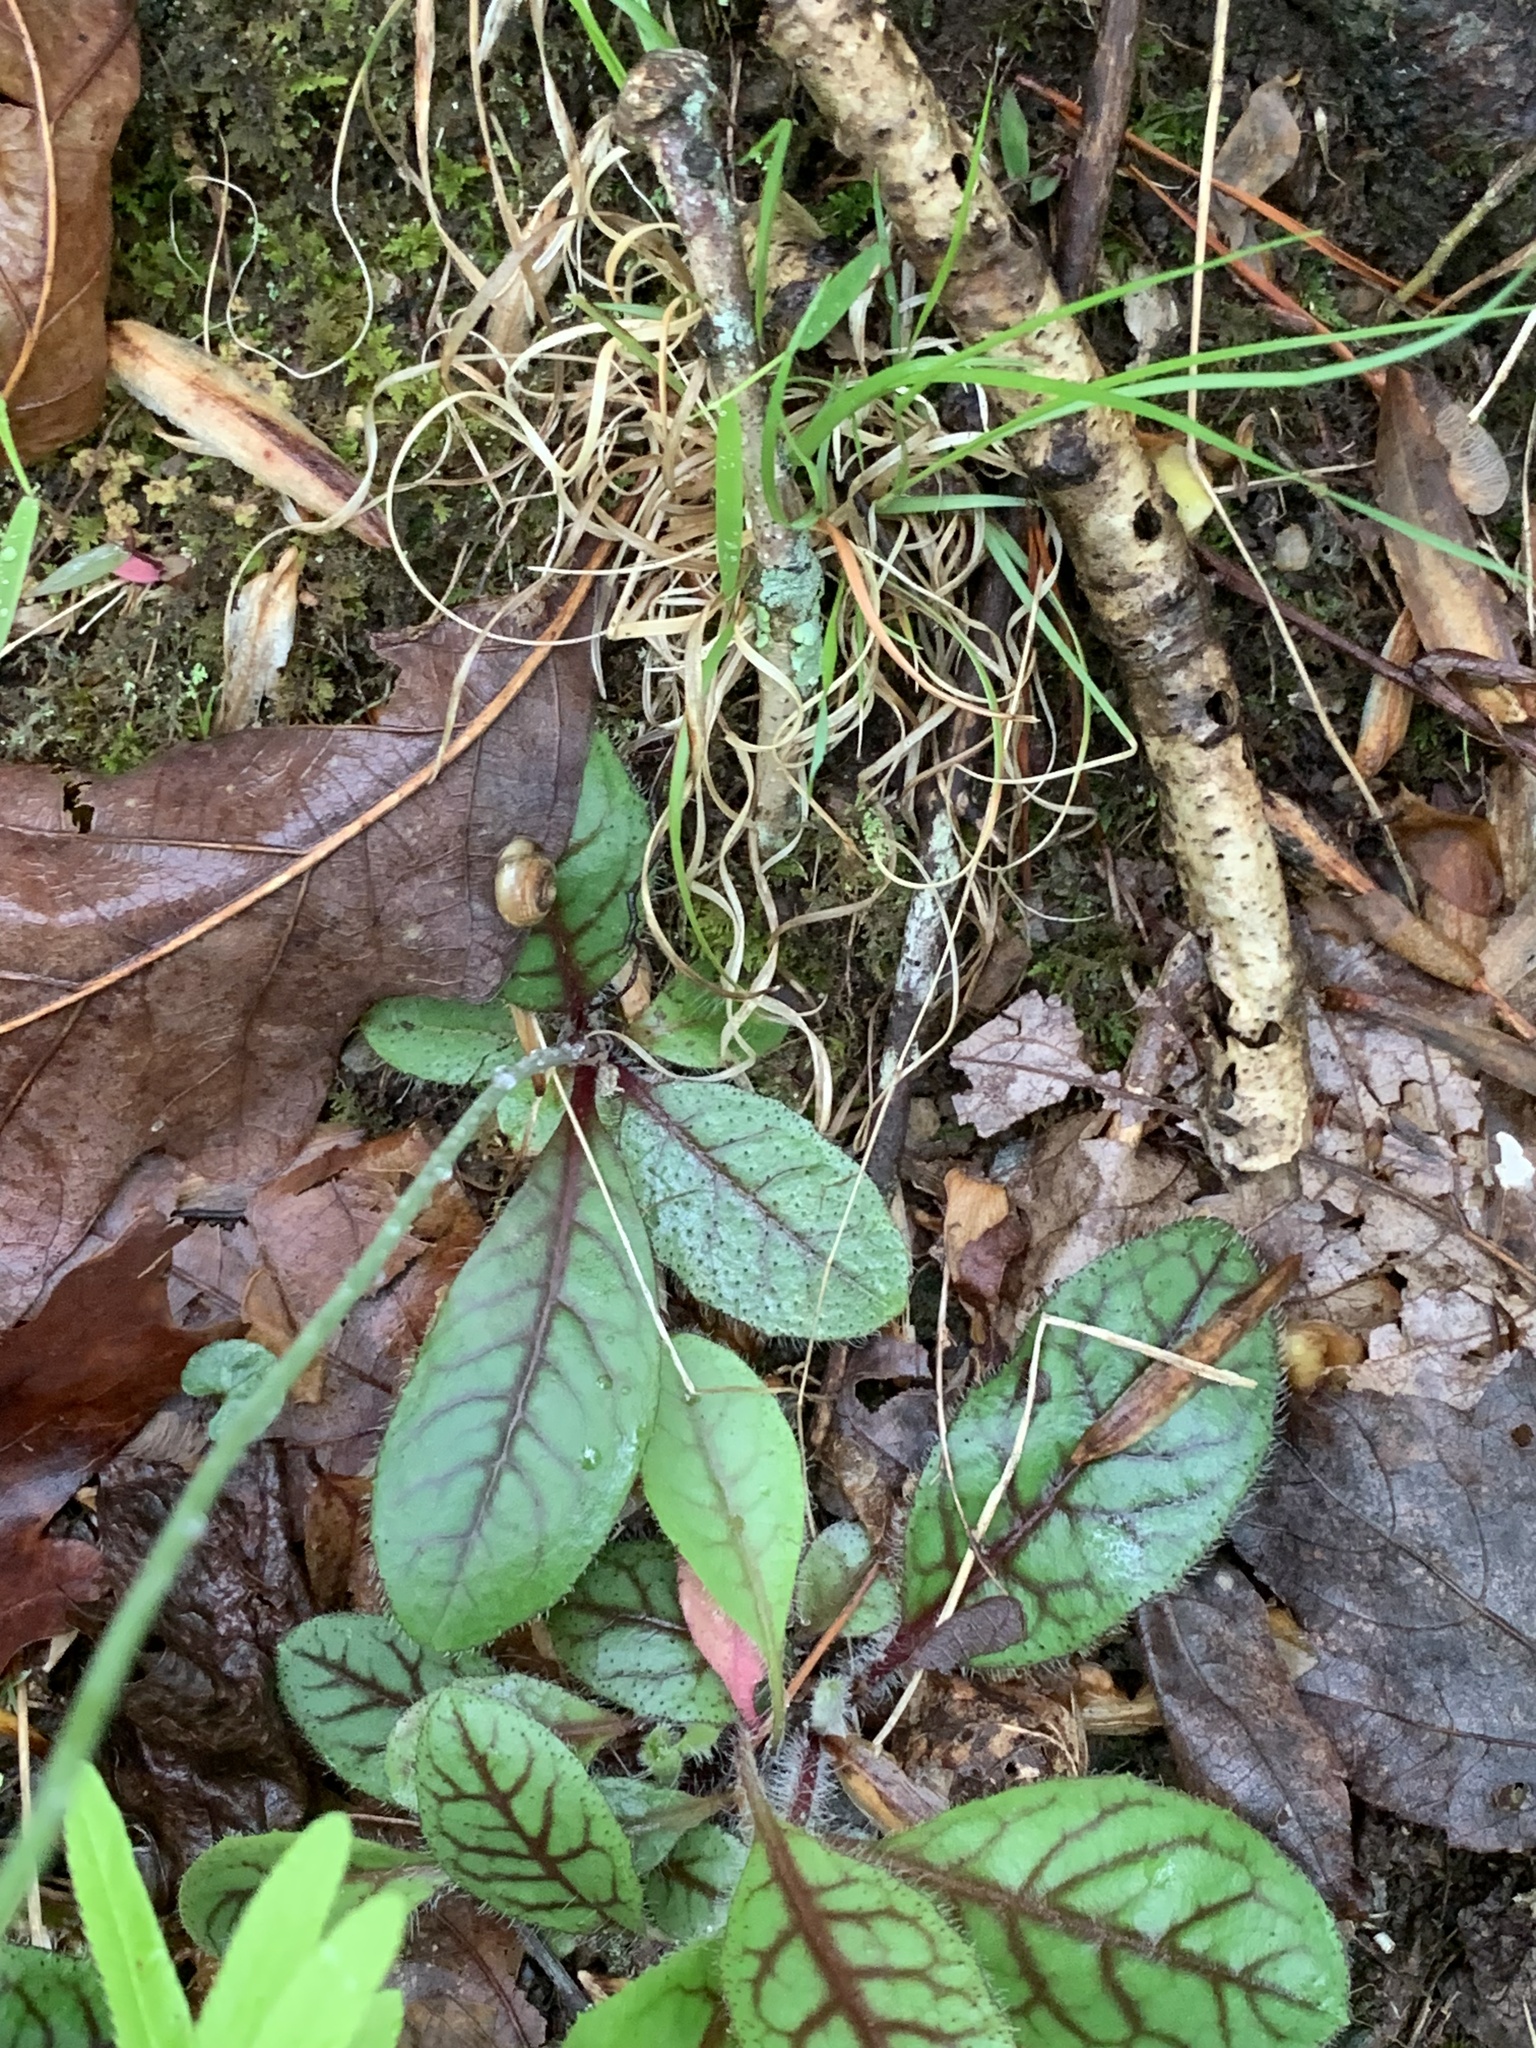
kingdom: Plantae
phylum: Tracheophyta
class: Magnoliopsida
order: Asterales
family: Asteraceae
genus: Hieracium
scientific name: Hieracium venosum
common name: Rattlesnake hawkweed
